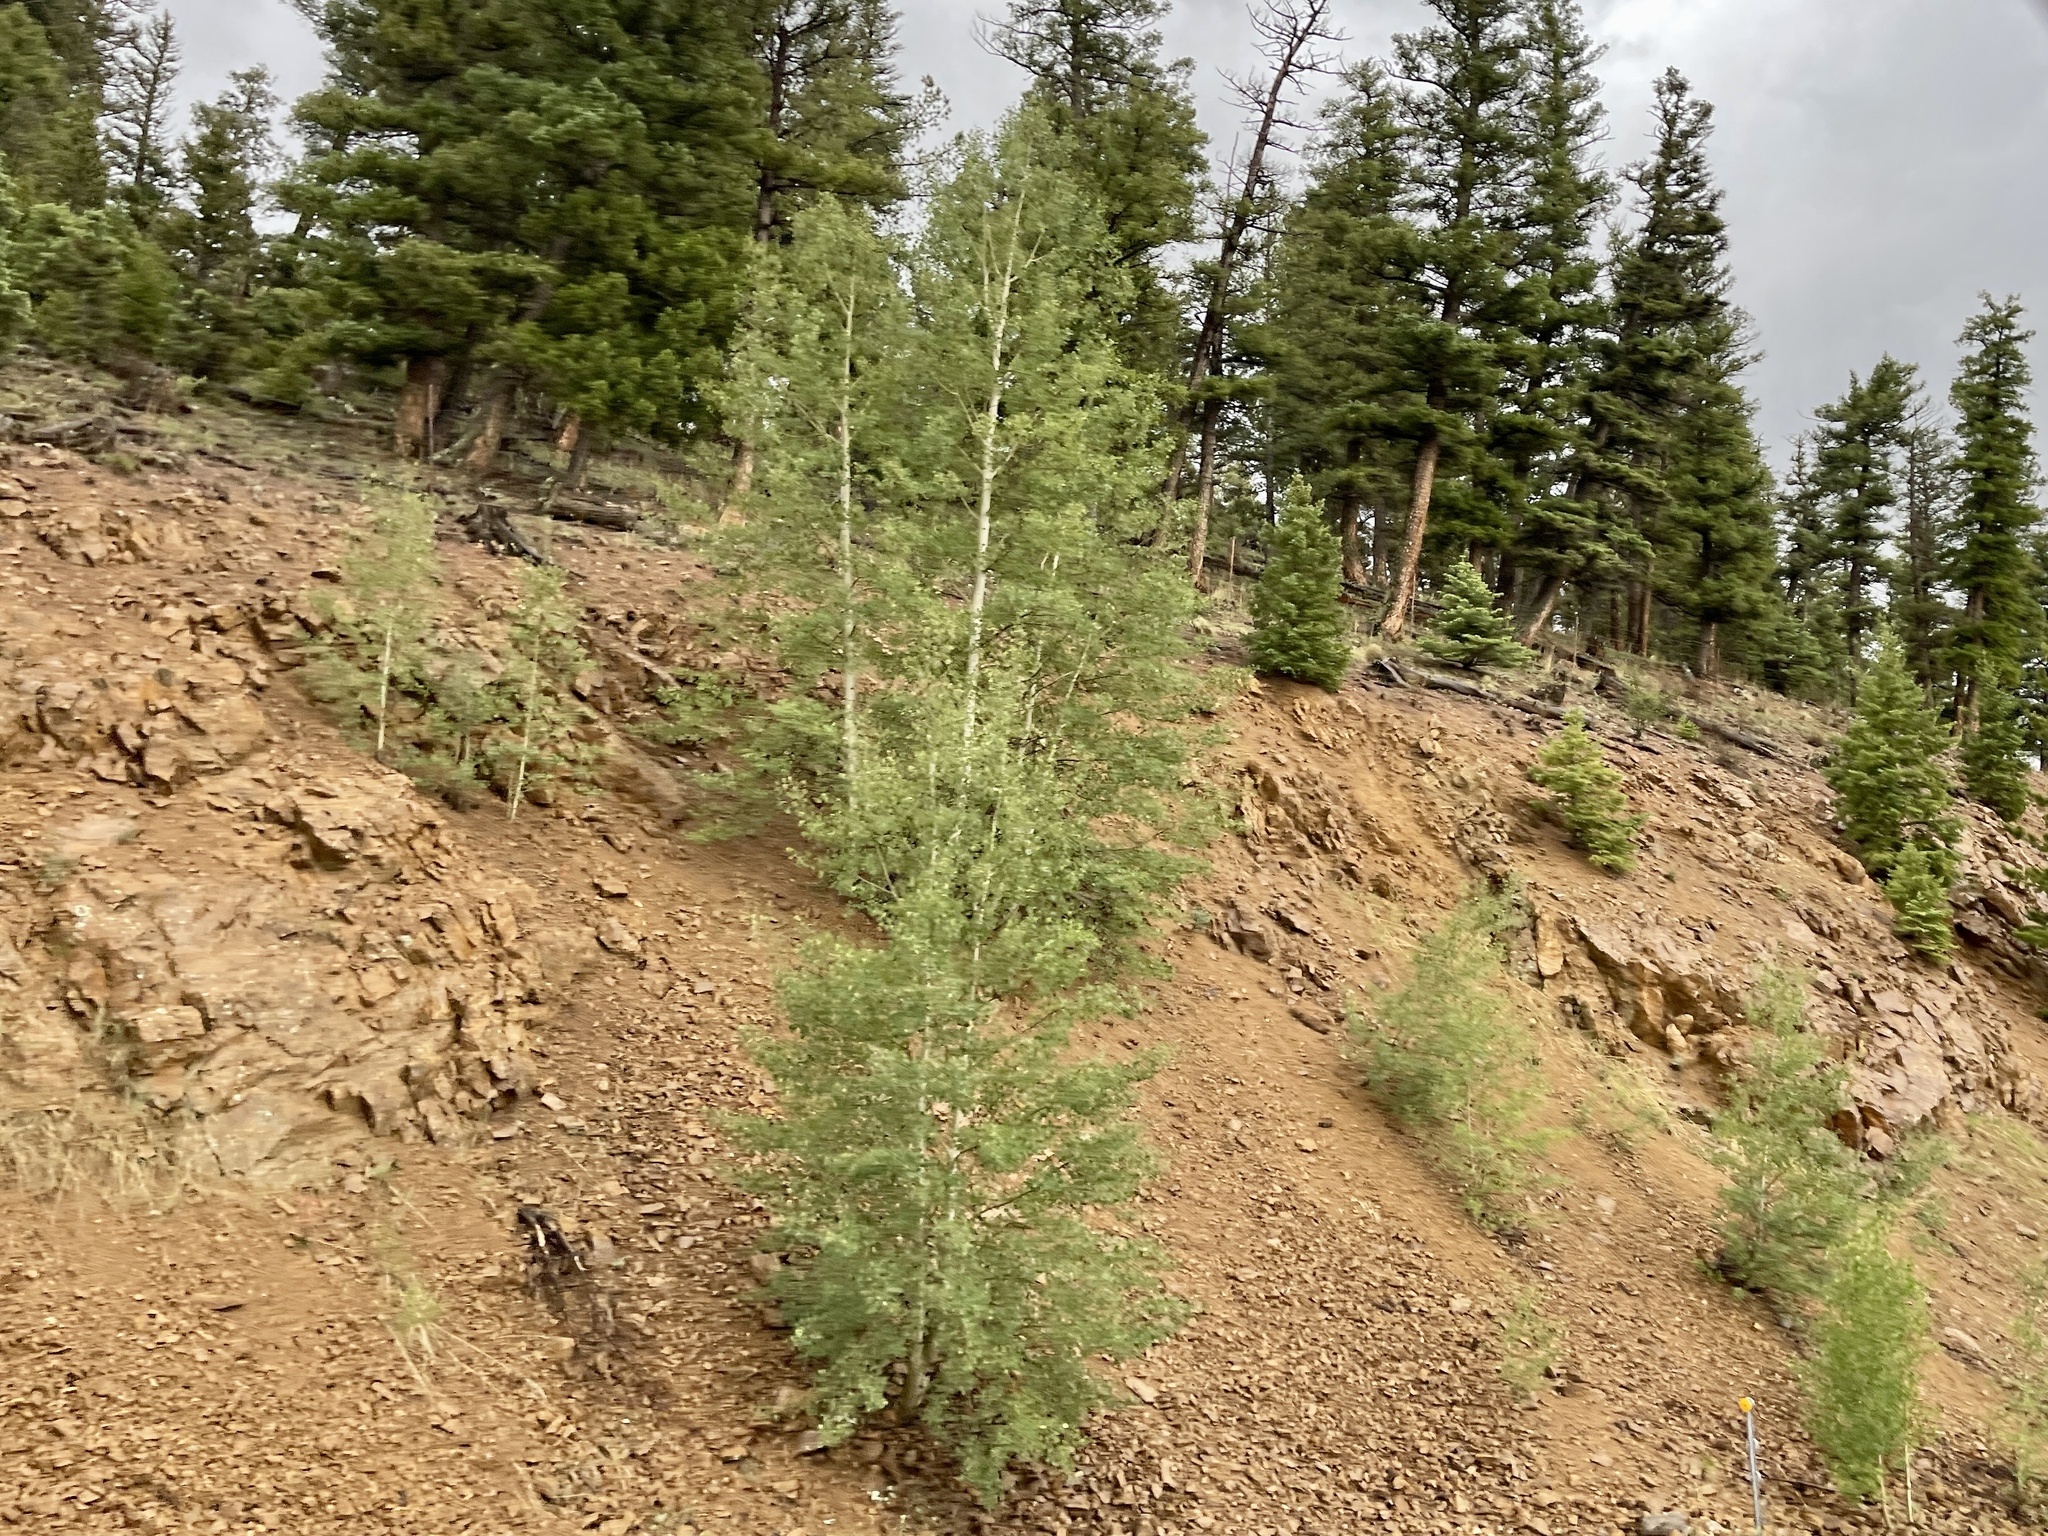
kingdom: Plantae
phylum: Tracheophyta
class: Magnoliopsida
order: Malpighiales
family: Salicaceae
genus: Populus
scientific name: Populus tremuloides
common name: Quaking aspen
